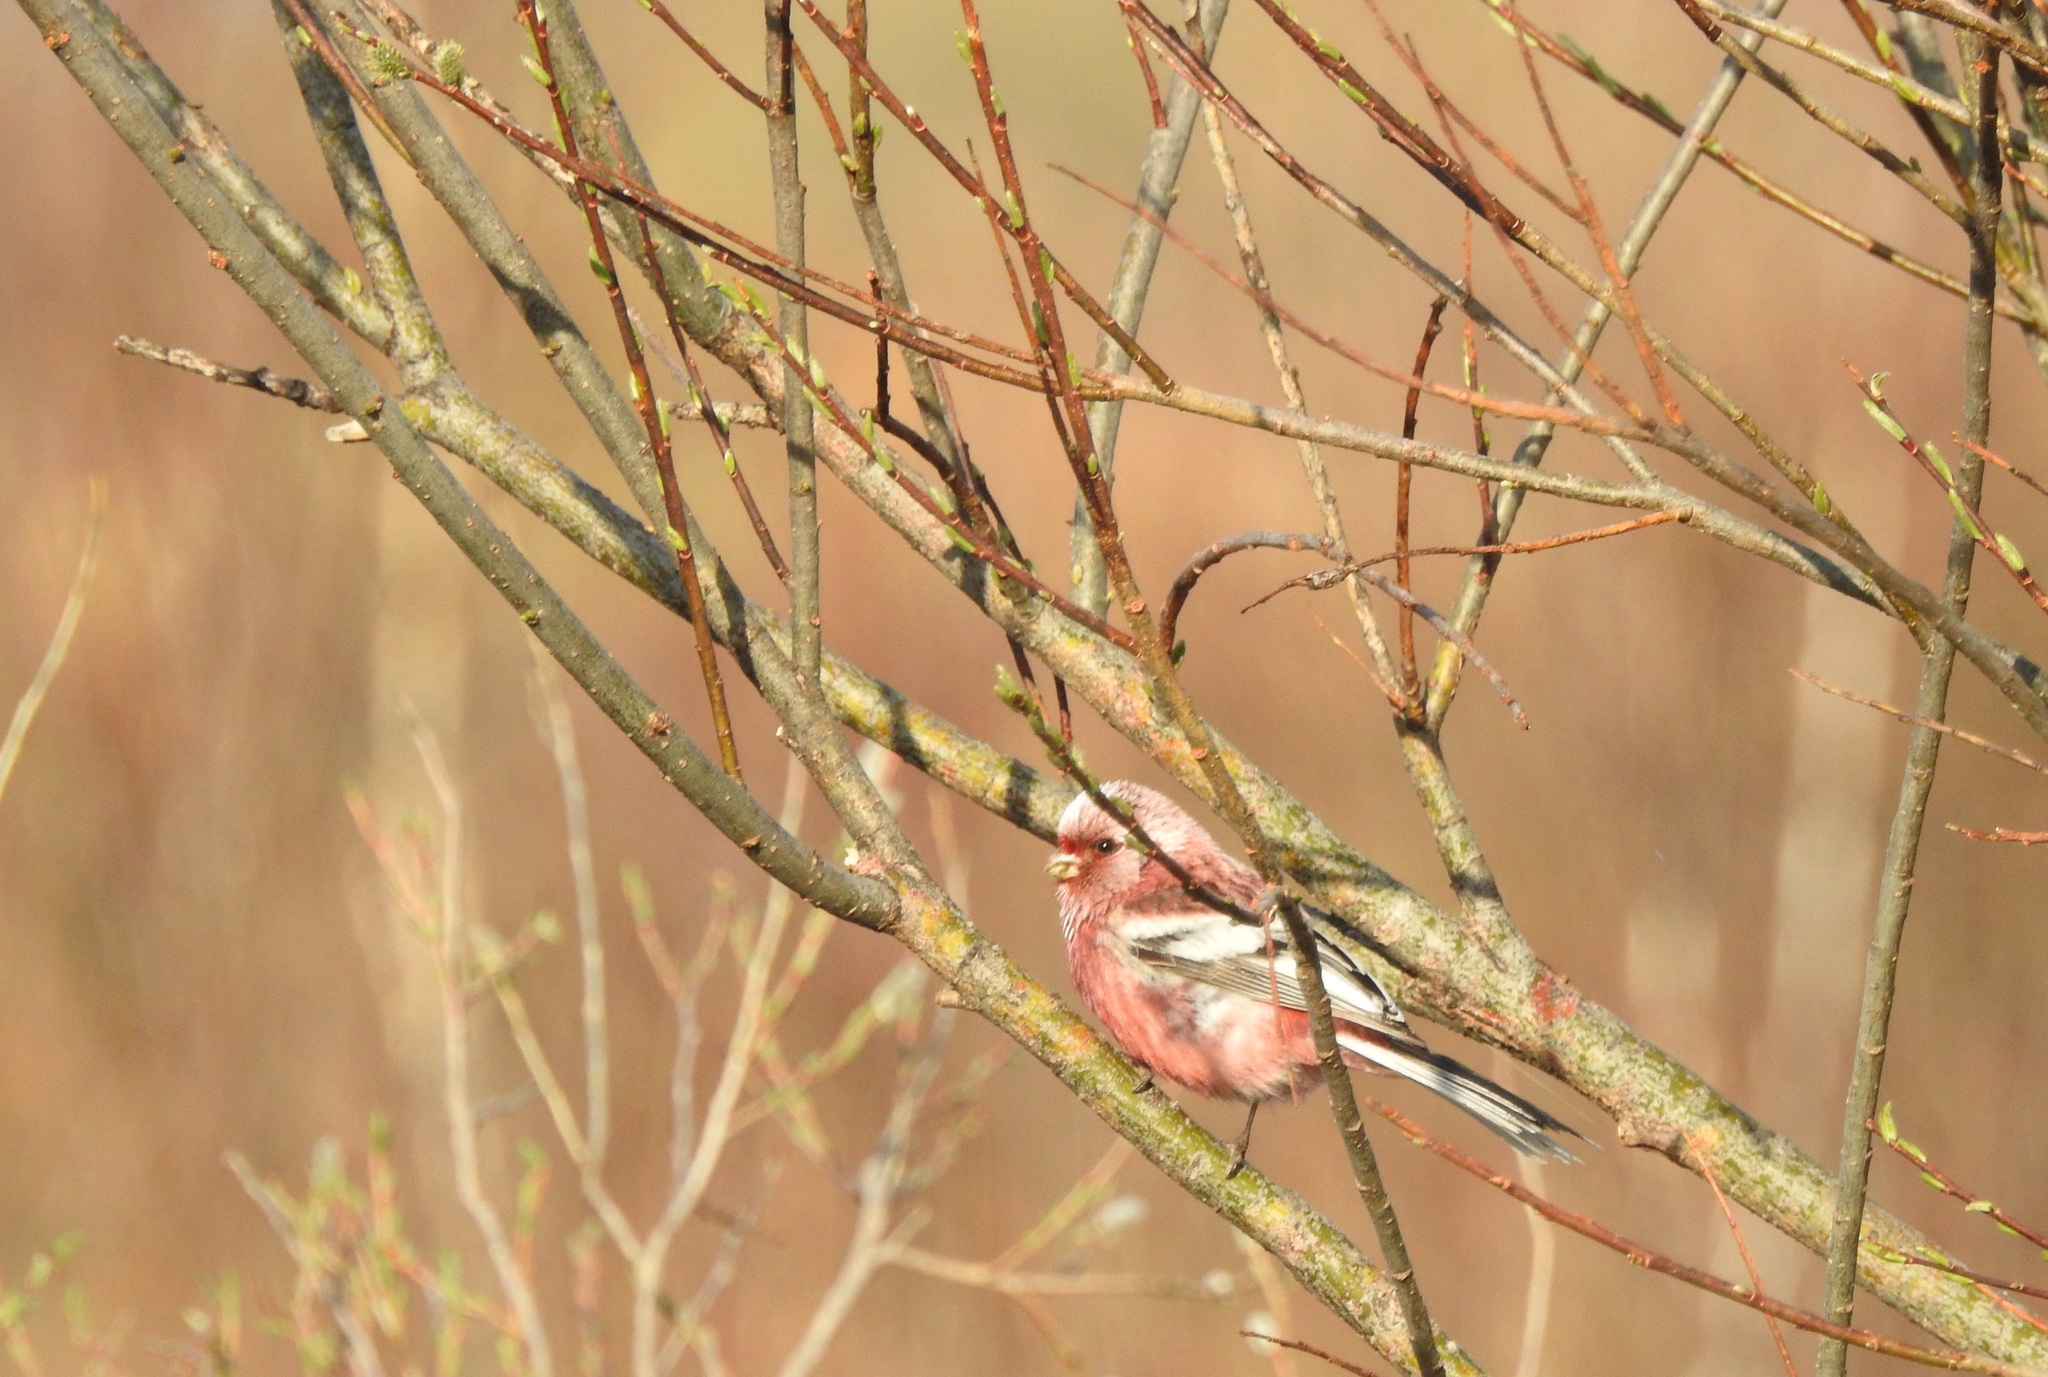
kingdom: Animalia
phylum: Chordata
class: Aves
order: Passeriformes
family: Fringillidae
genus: Carpodacus
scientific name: Carpodacus sibiricus
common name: Long-tailed rosefinch
